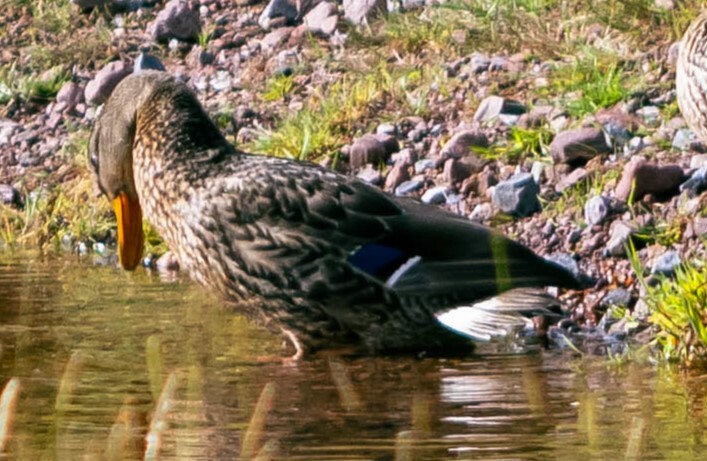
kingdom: Animalia
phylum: Chordata
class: Aves
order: Anseriformes
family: Anatidae
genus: Anas
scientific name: Anas platyrhynchos
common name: Mallard
